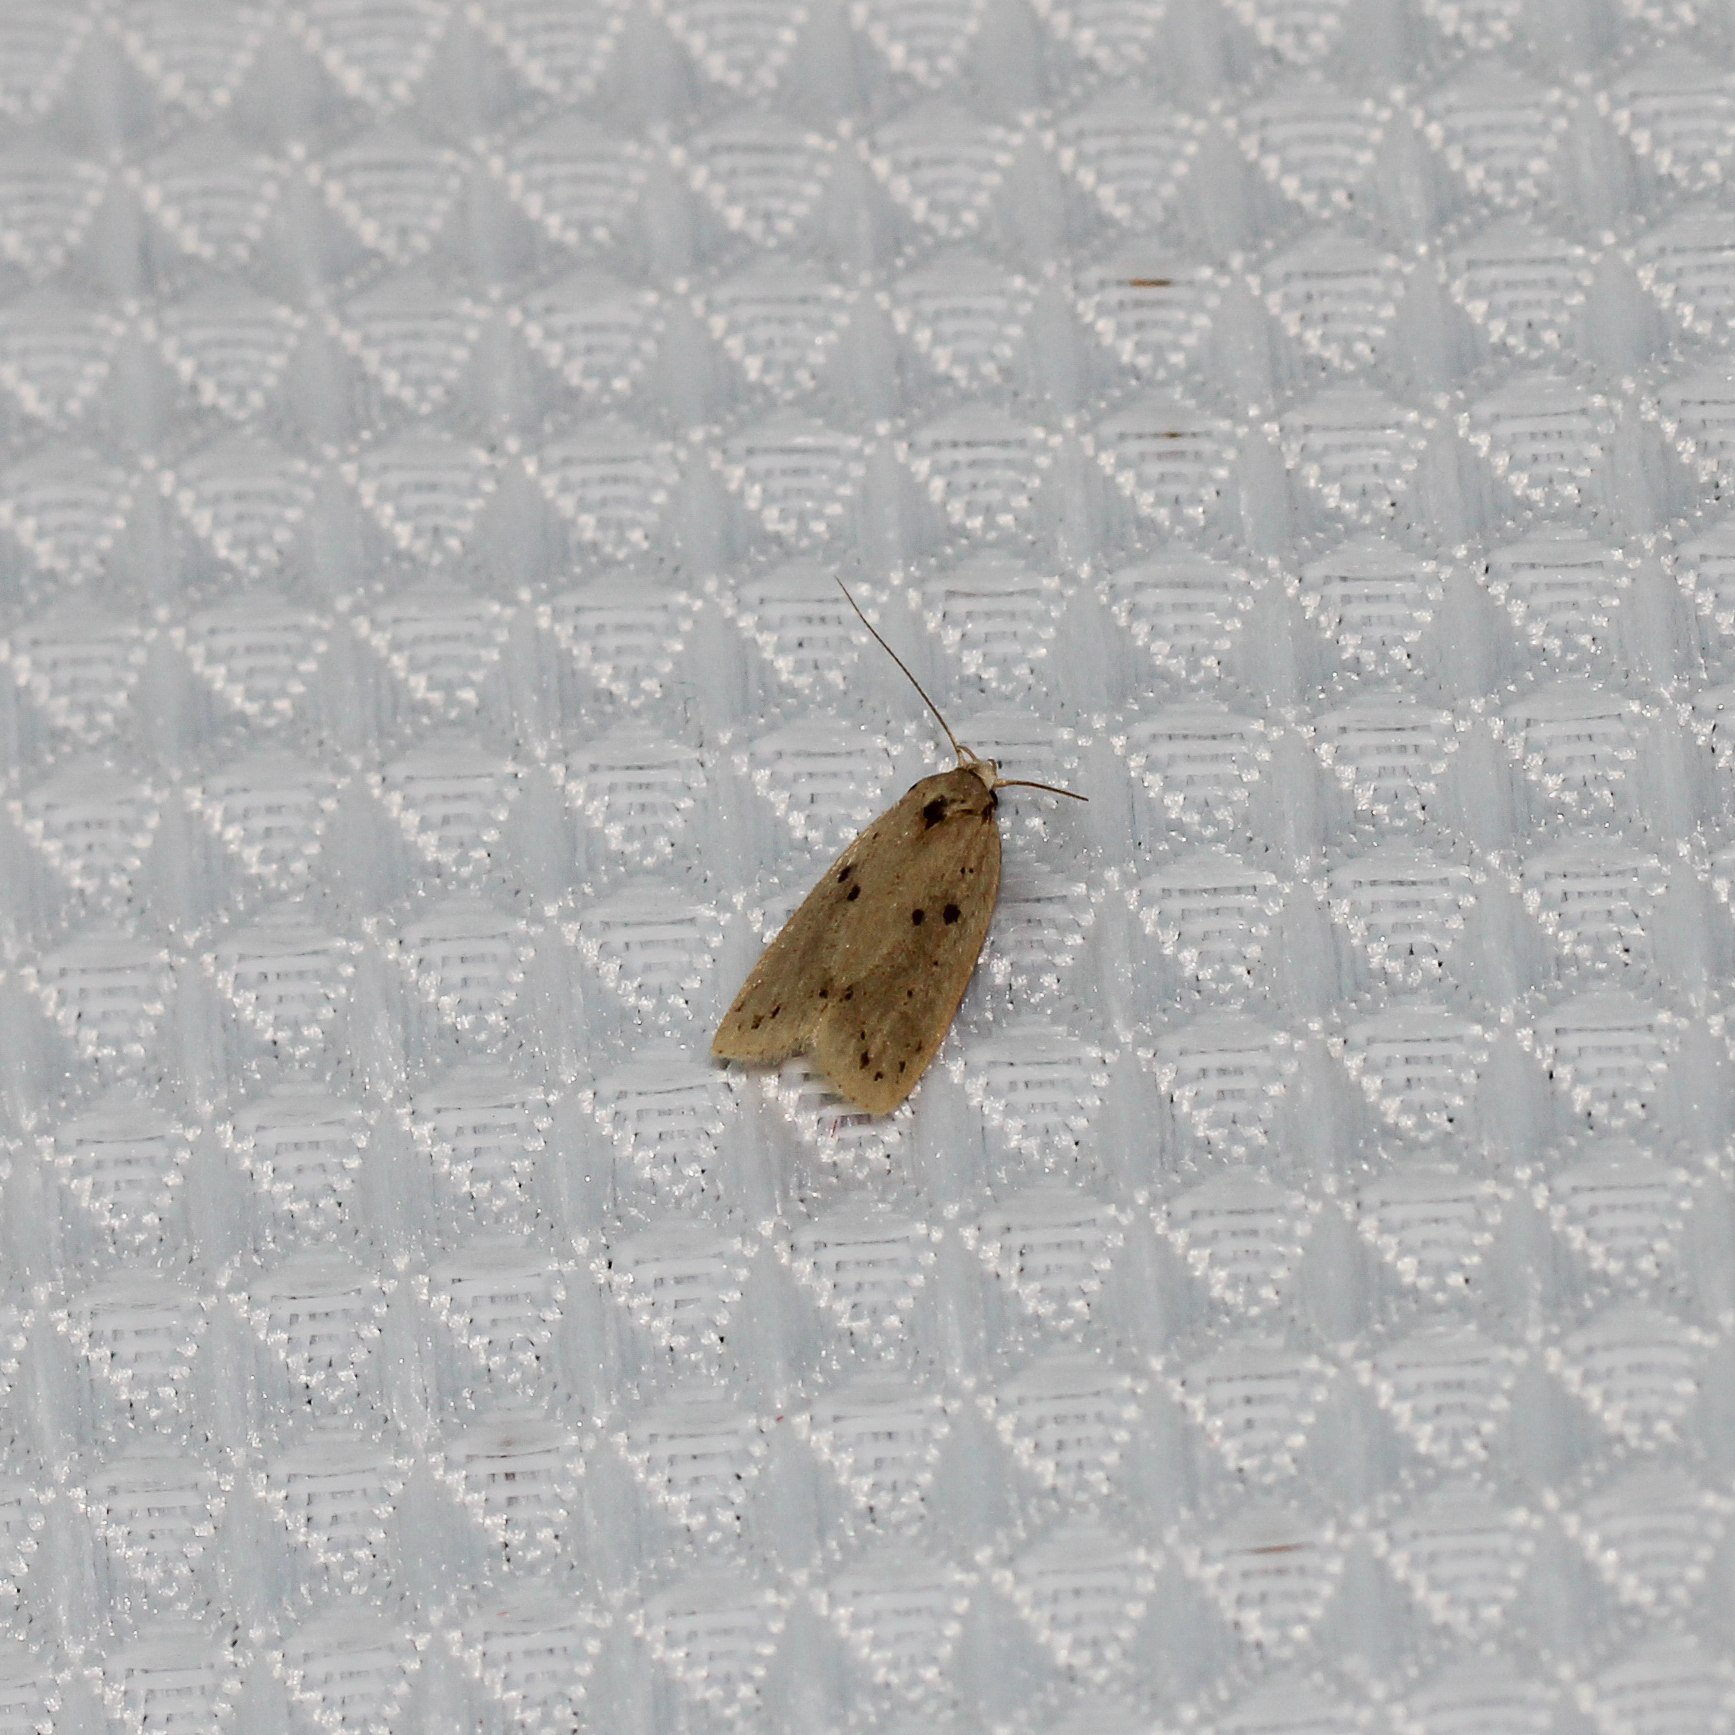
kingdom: Animalia
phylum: Arthropoda
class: Insecta
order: Lepidoptera
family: Peleopodidae
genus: Scythropiodes
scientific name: Scythropiodes issikii
